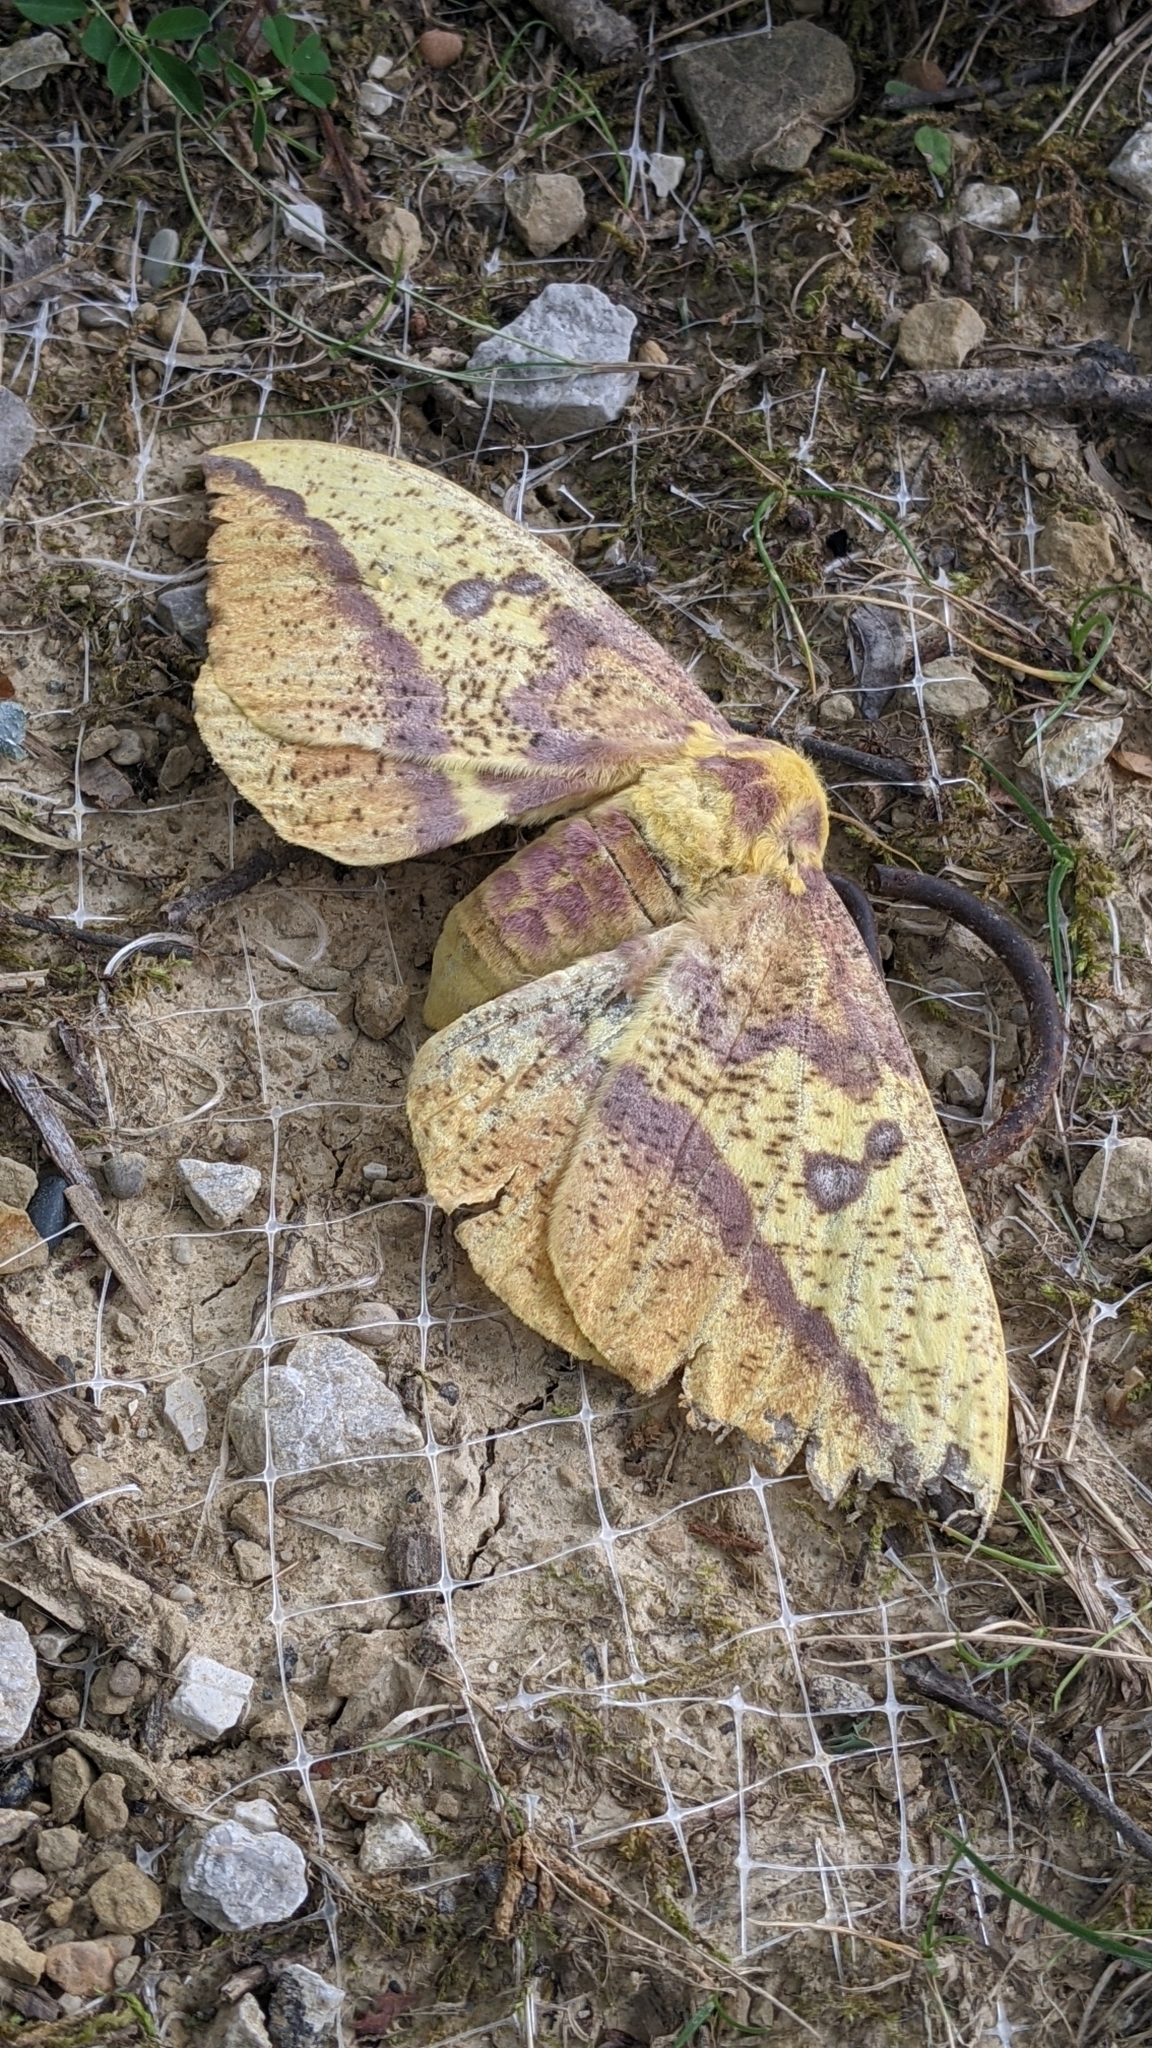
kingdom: Animalia
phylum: Arthropoda
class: Insecta
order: Lepidoptera
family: Saturniidae
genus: Eacles
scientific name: Eacles imperialis
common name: Imperial moth
